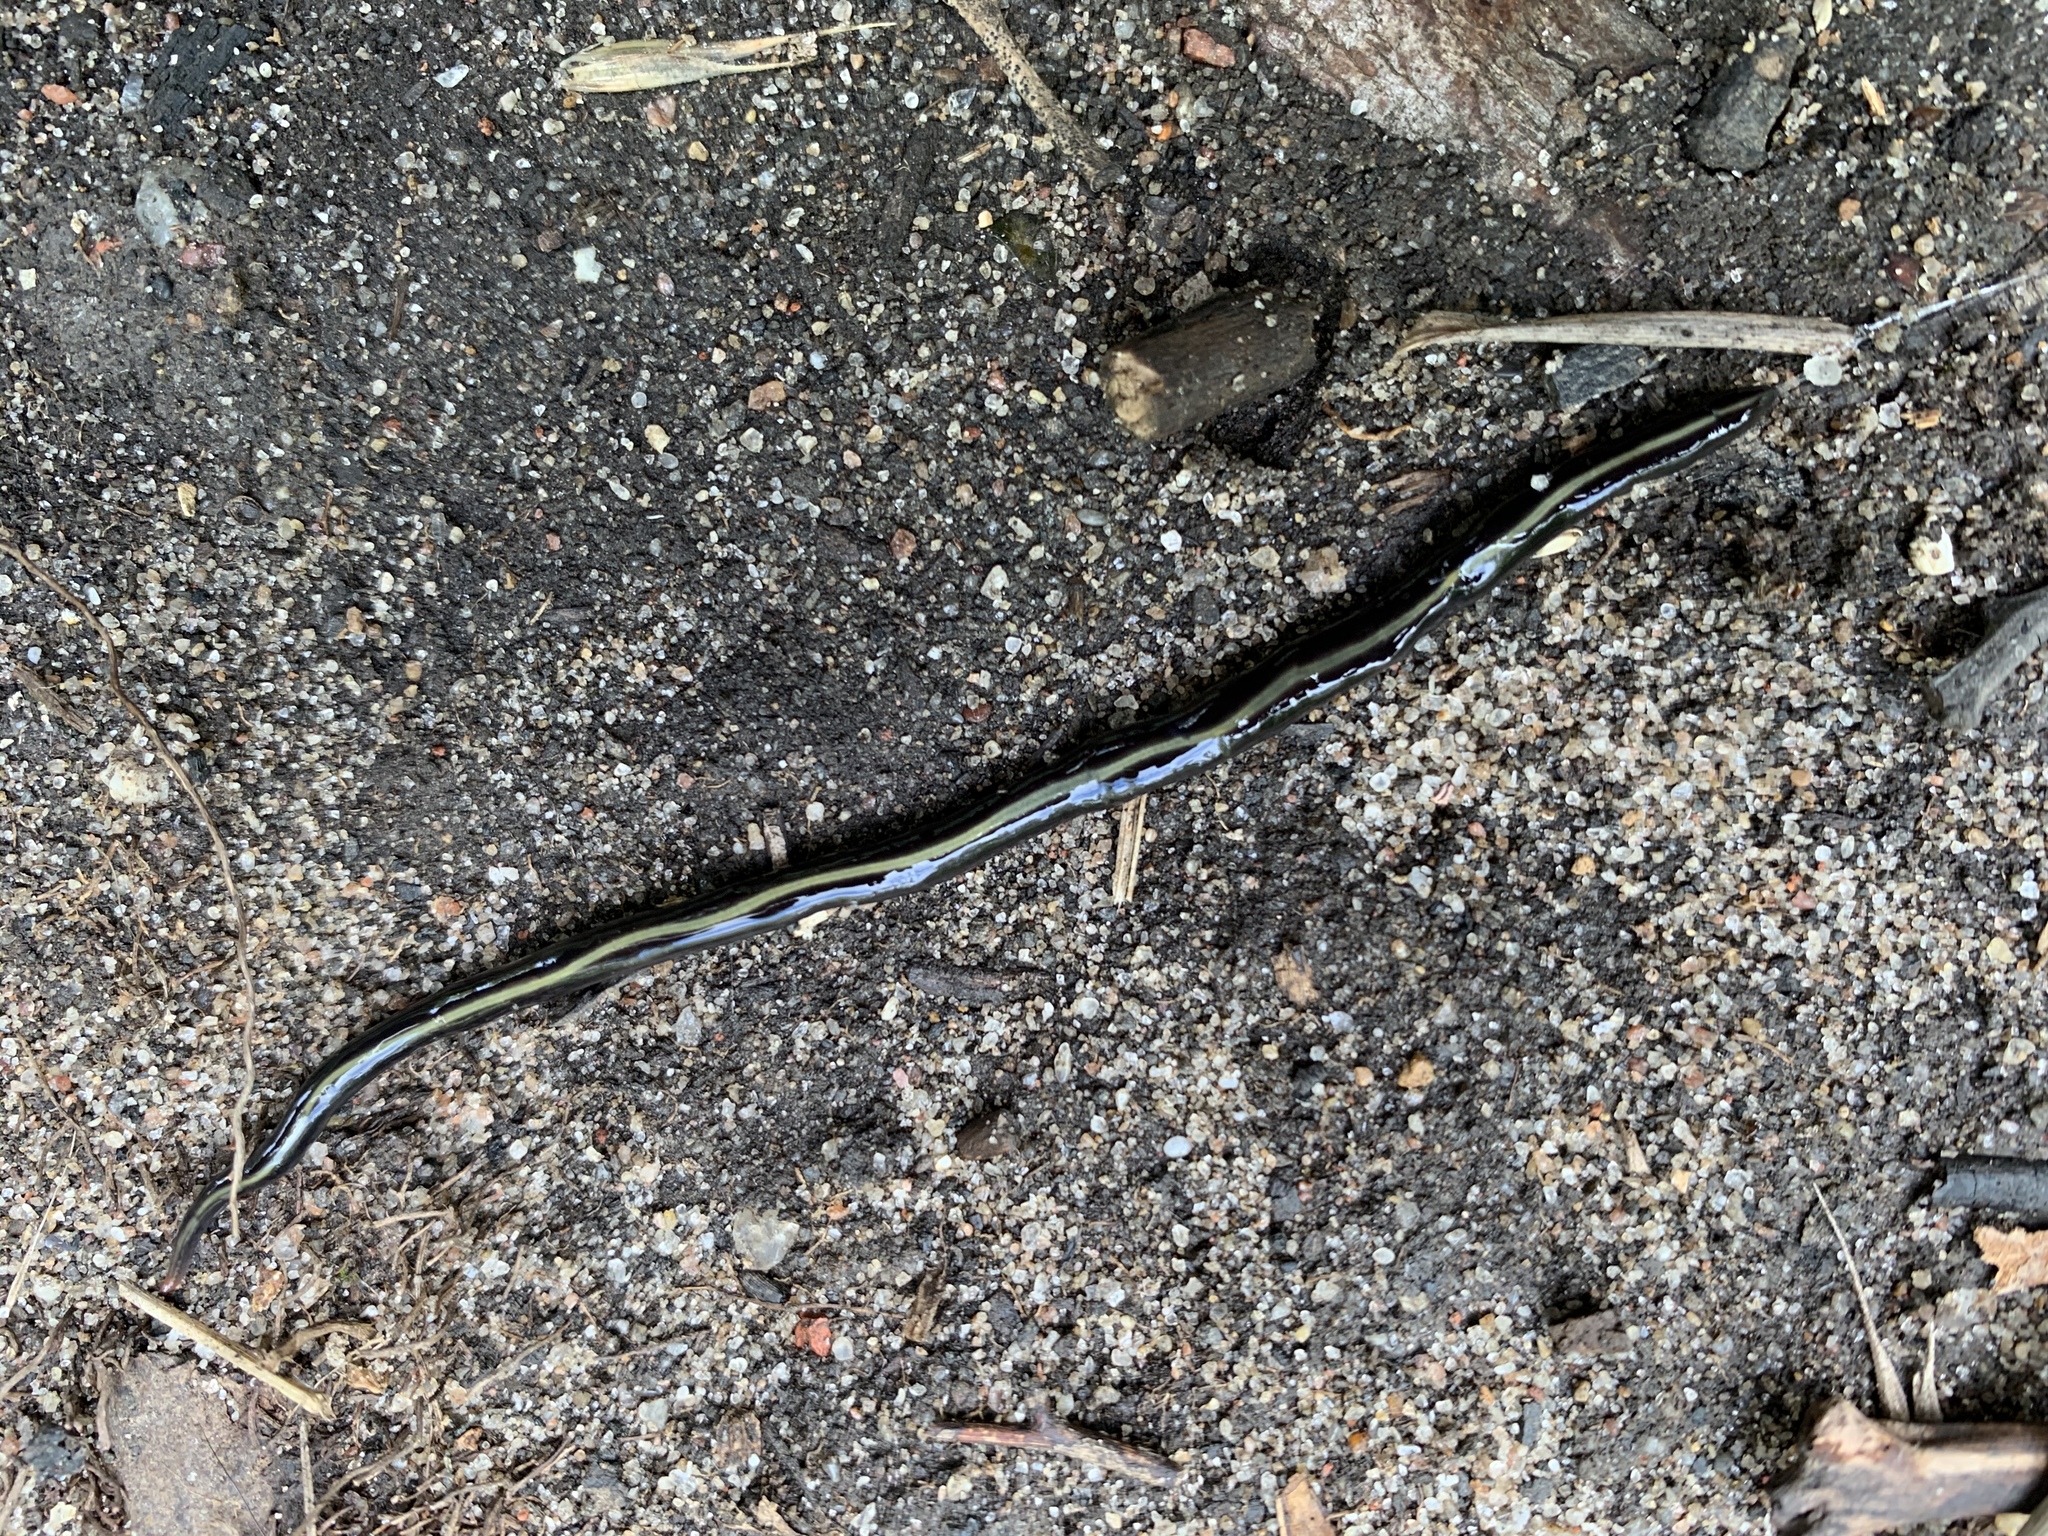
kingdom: Animalia
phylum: Platyhelminthes
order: Tricladida
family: Geoplanidae
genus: Caenoplana
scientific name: Caenoplana coerulea
